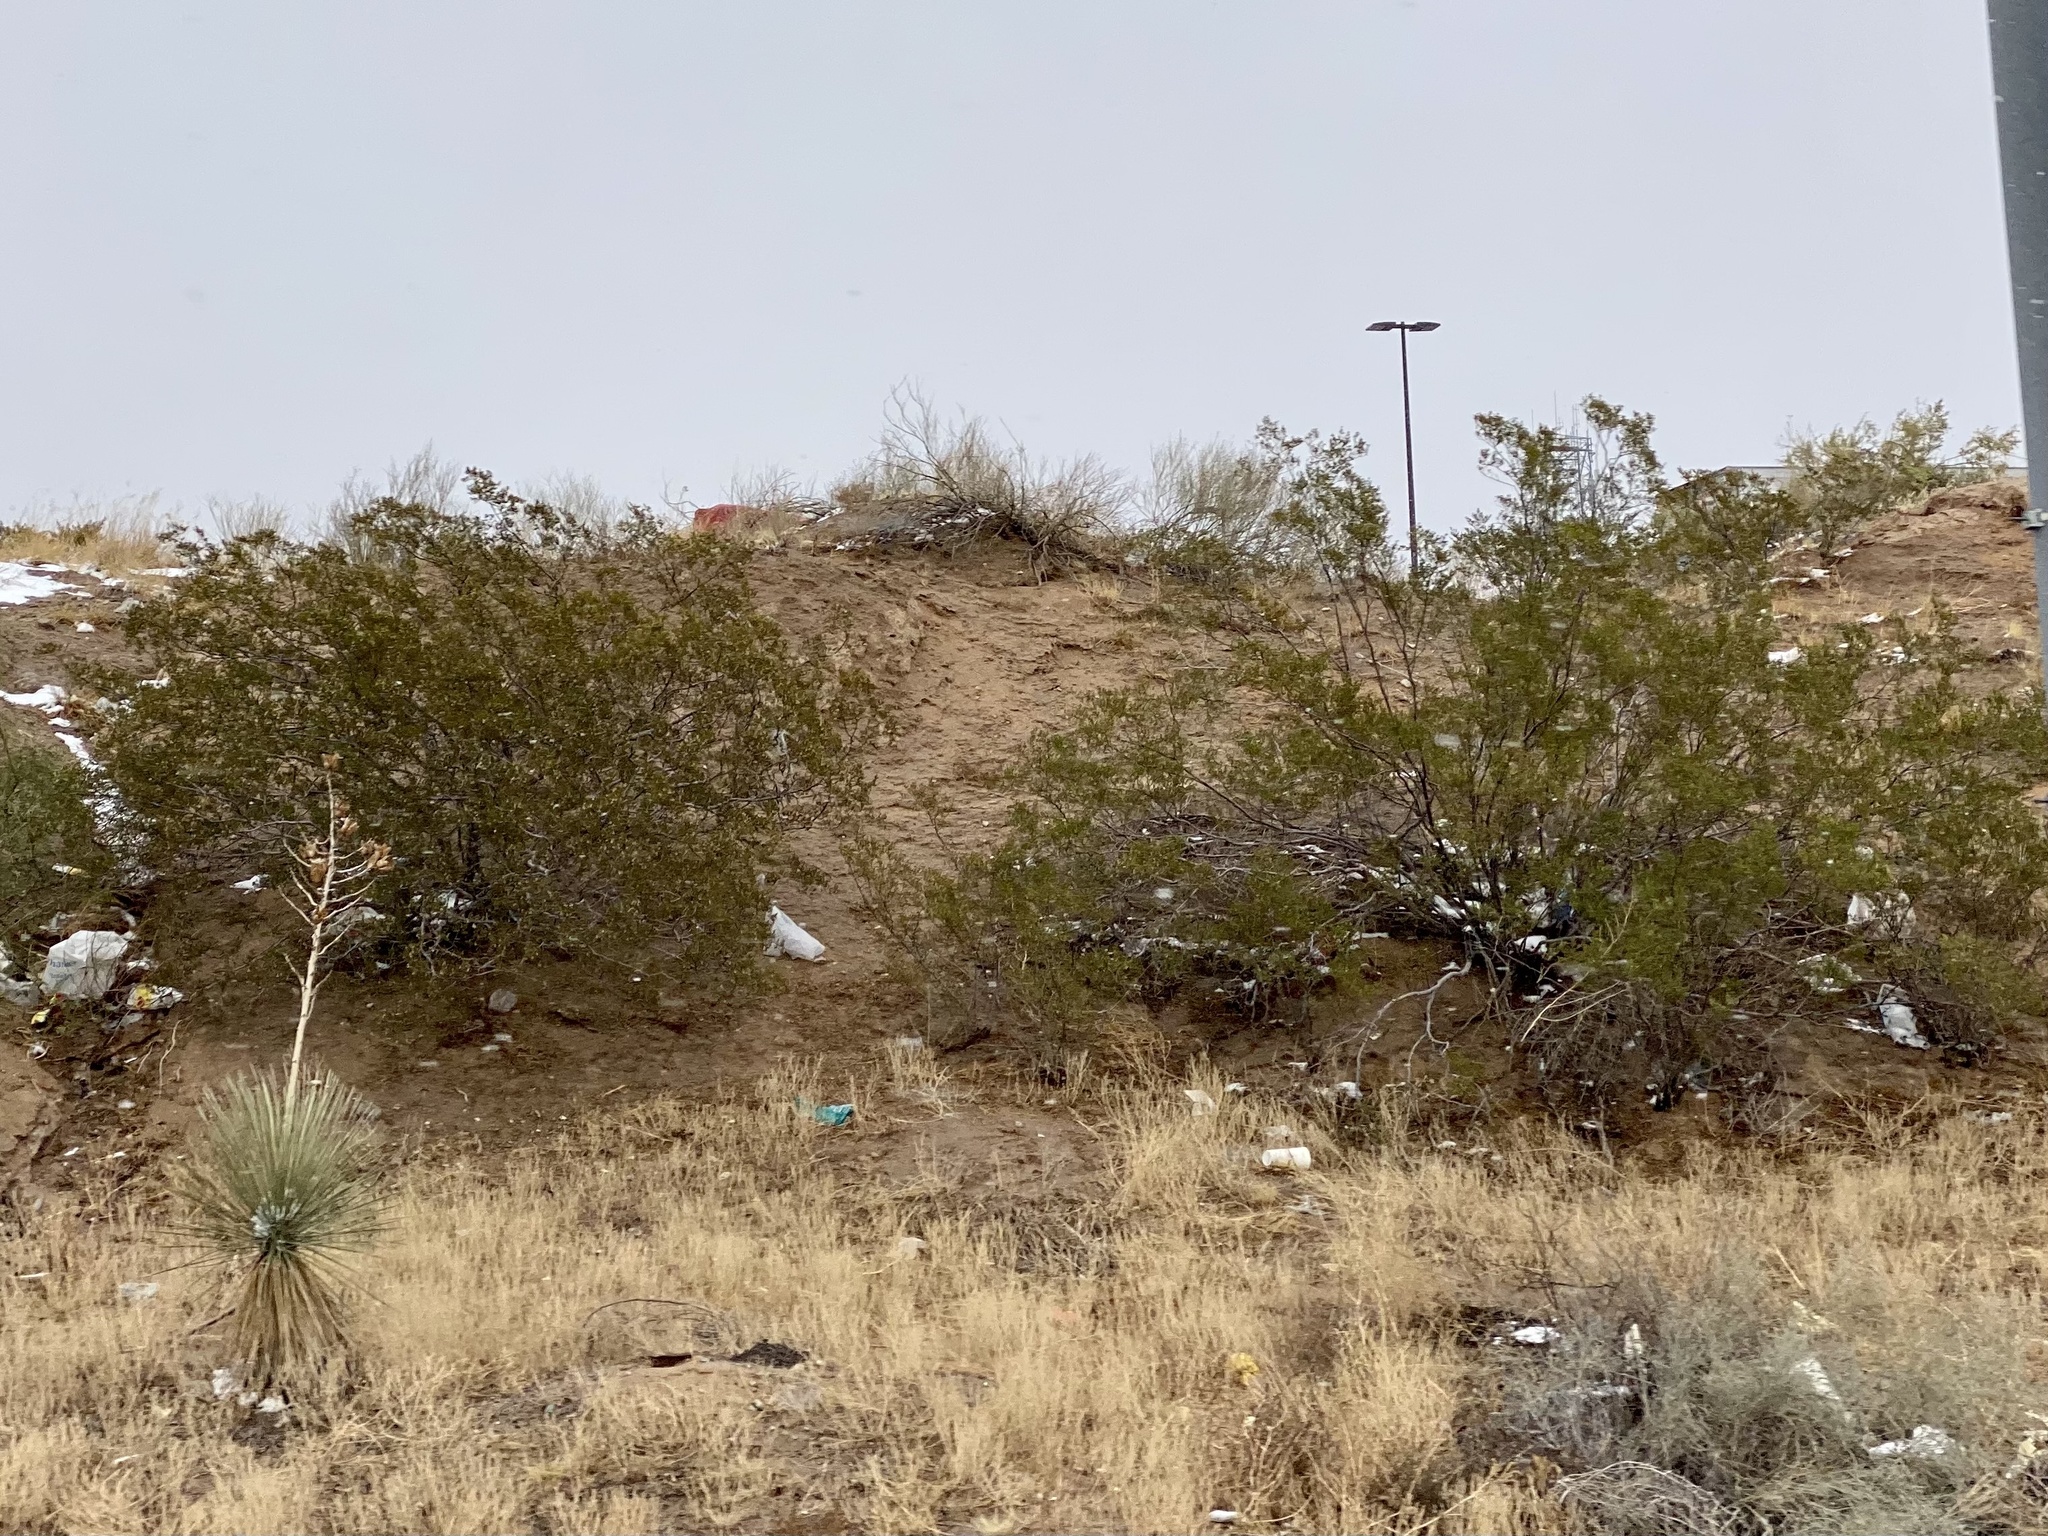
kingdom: Plantae
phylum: Tracheophyta
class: Magnoliopsida
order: Zygophyllales
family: Zygophyllaceae
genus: Larrea
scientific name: Larrea tridentata
